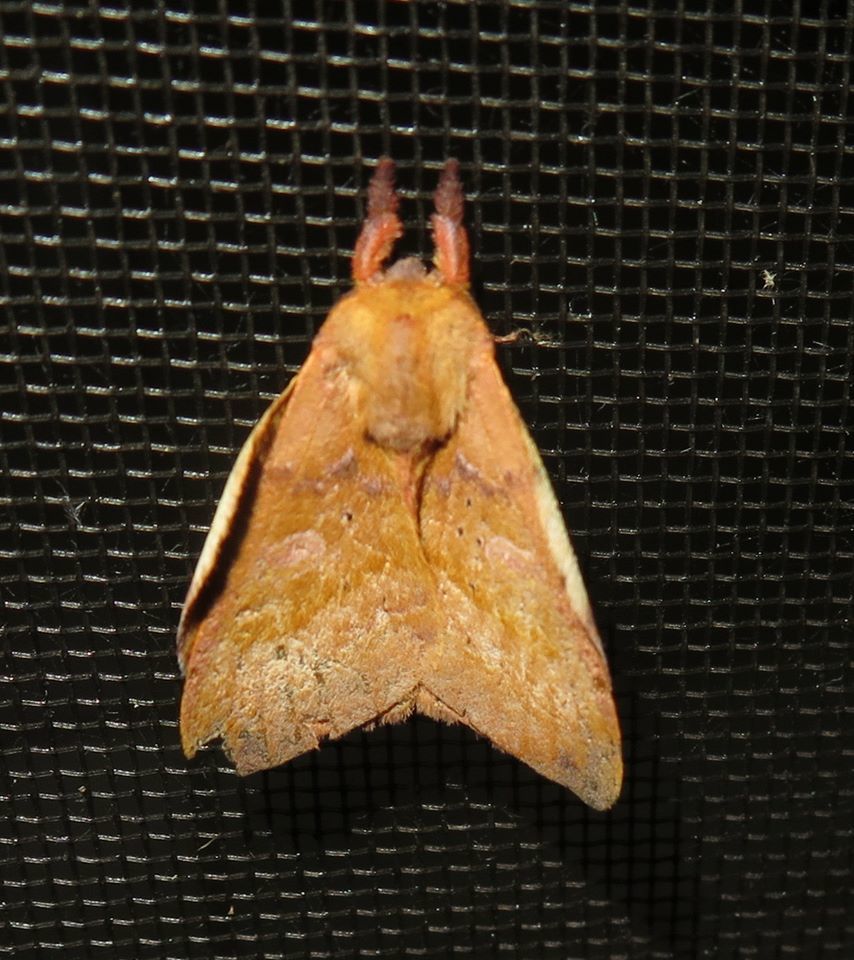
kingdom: Animalia
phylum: Arthropoda
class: Insecta
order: Lepidoptera
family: Saturniidae
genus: Automerina
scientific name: Automerina cypria
